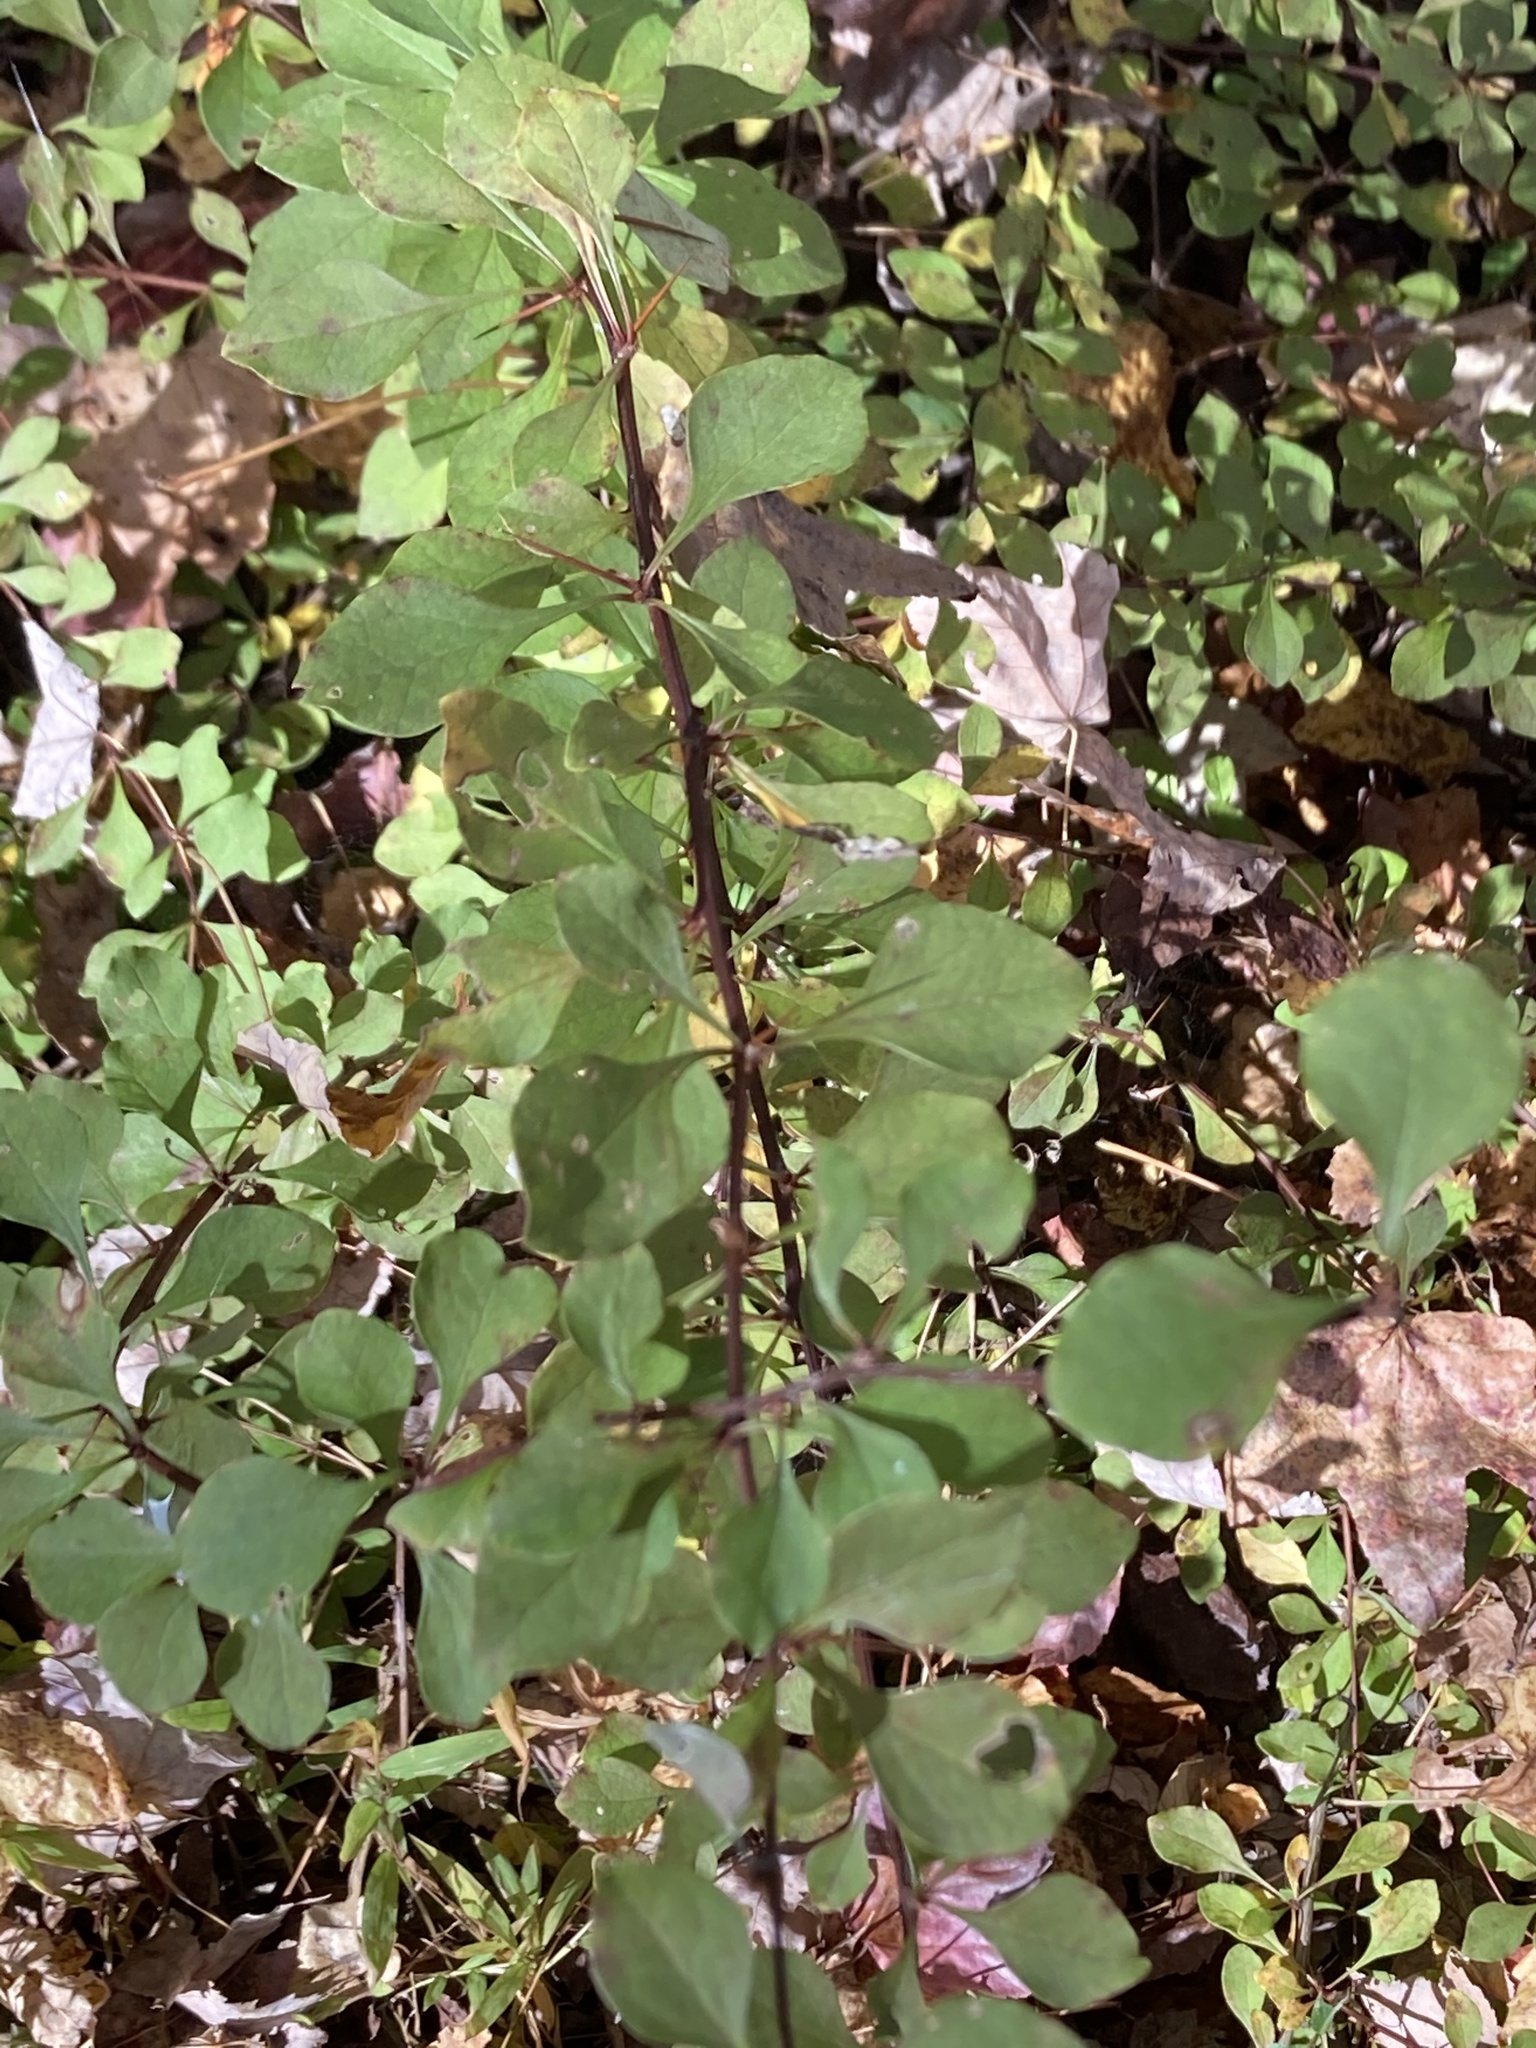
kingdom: Plantae
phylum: Tracheophyta
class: Magnoliopsida
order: Ranunculales
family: Berberidaceae
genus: Berberis
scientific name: Berberis thunbergii
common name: Japanese barberry
